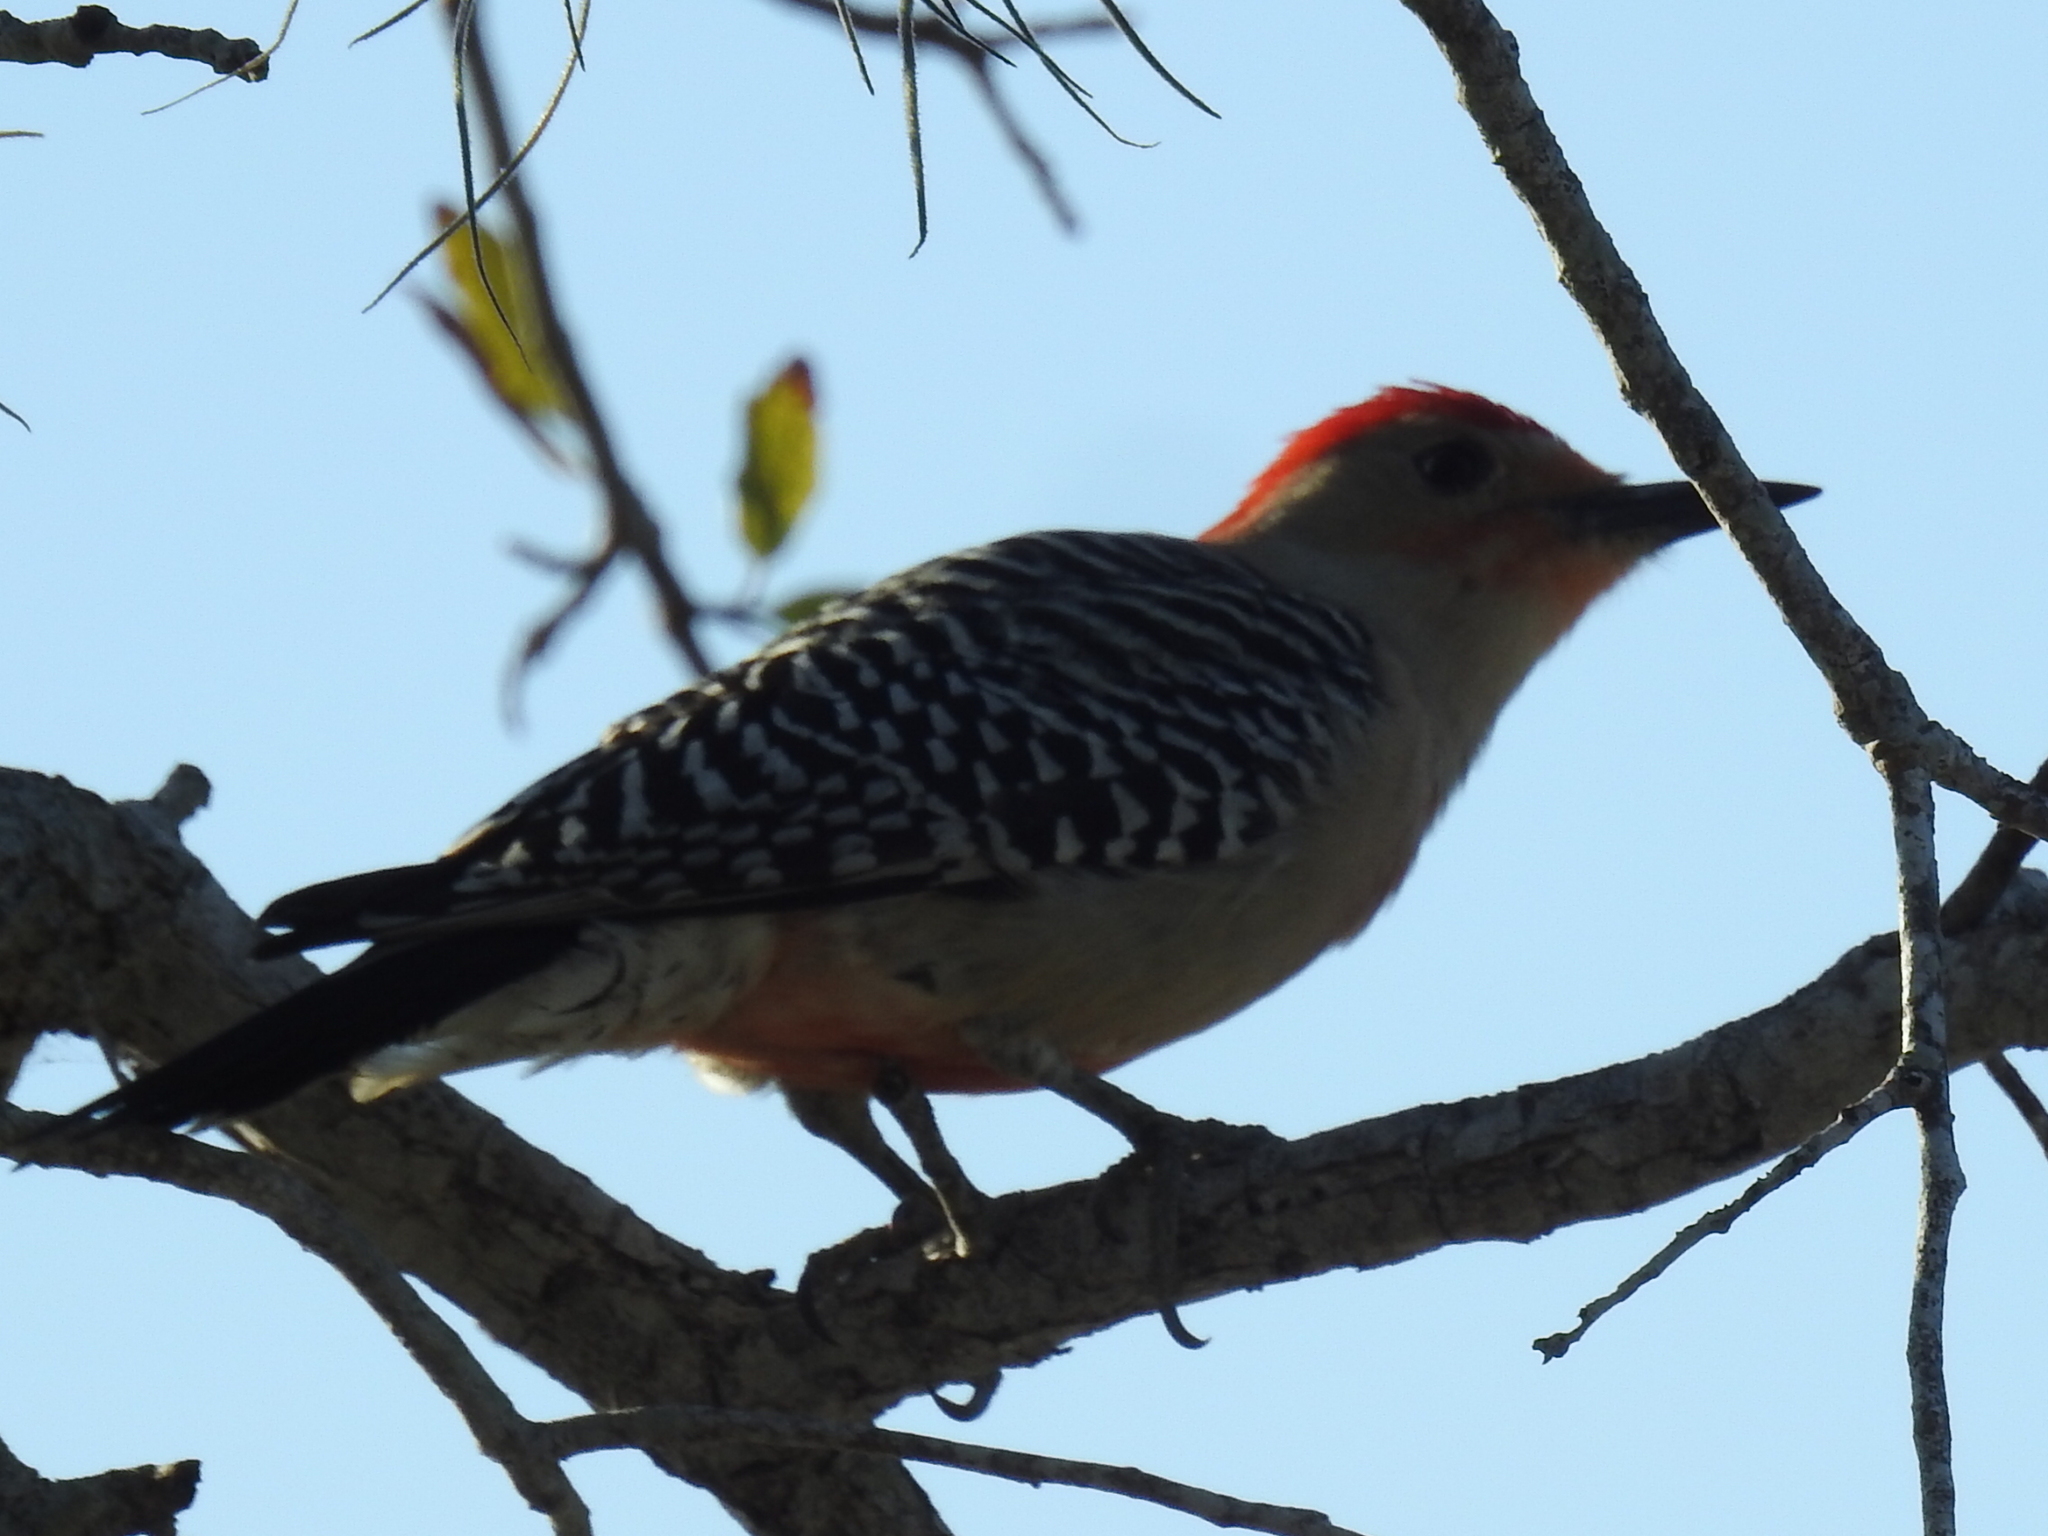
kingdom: Animalia
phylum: Chordata
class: Aves
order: Piciformes
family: Picidae
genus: Melanerpes
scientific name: Melanerpes carolinus
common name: Red-bellied woodpecker
